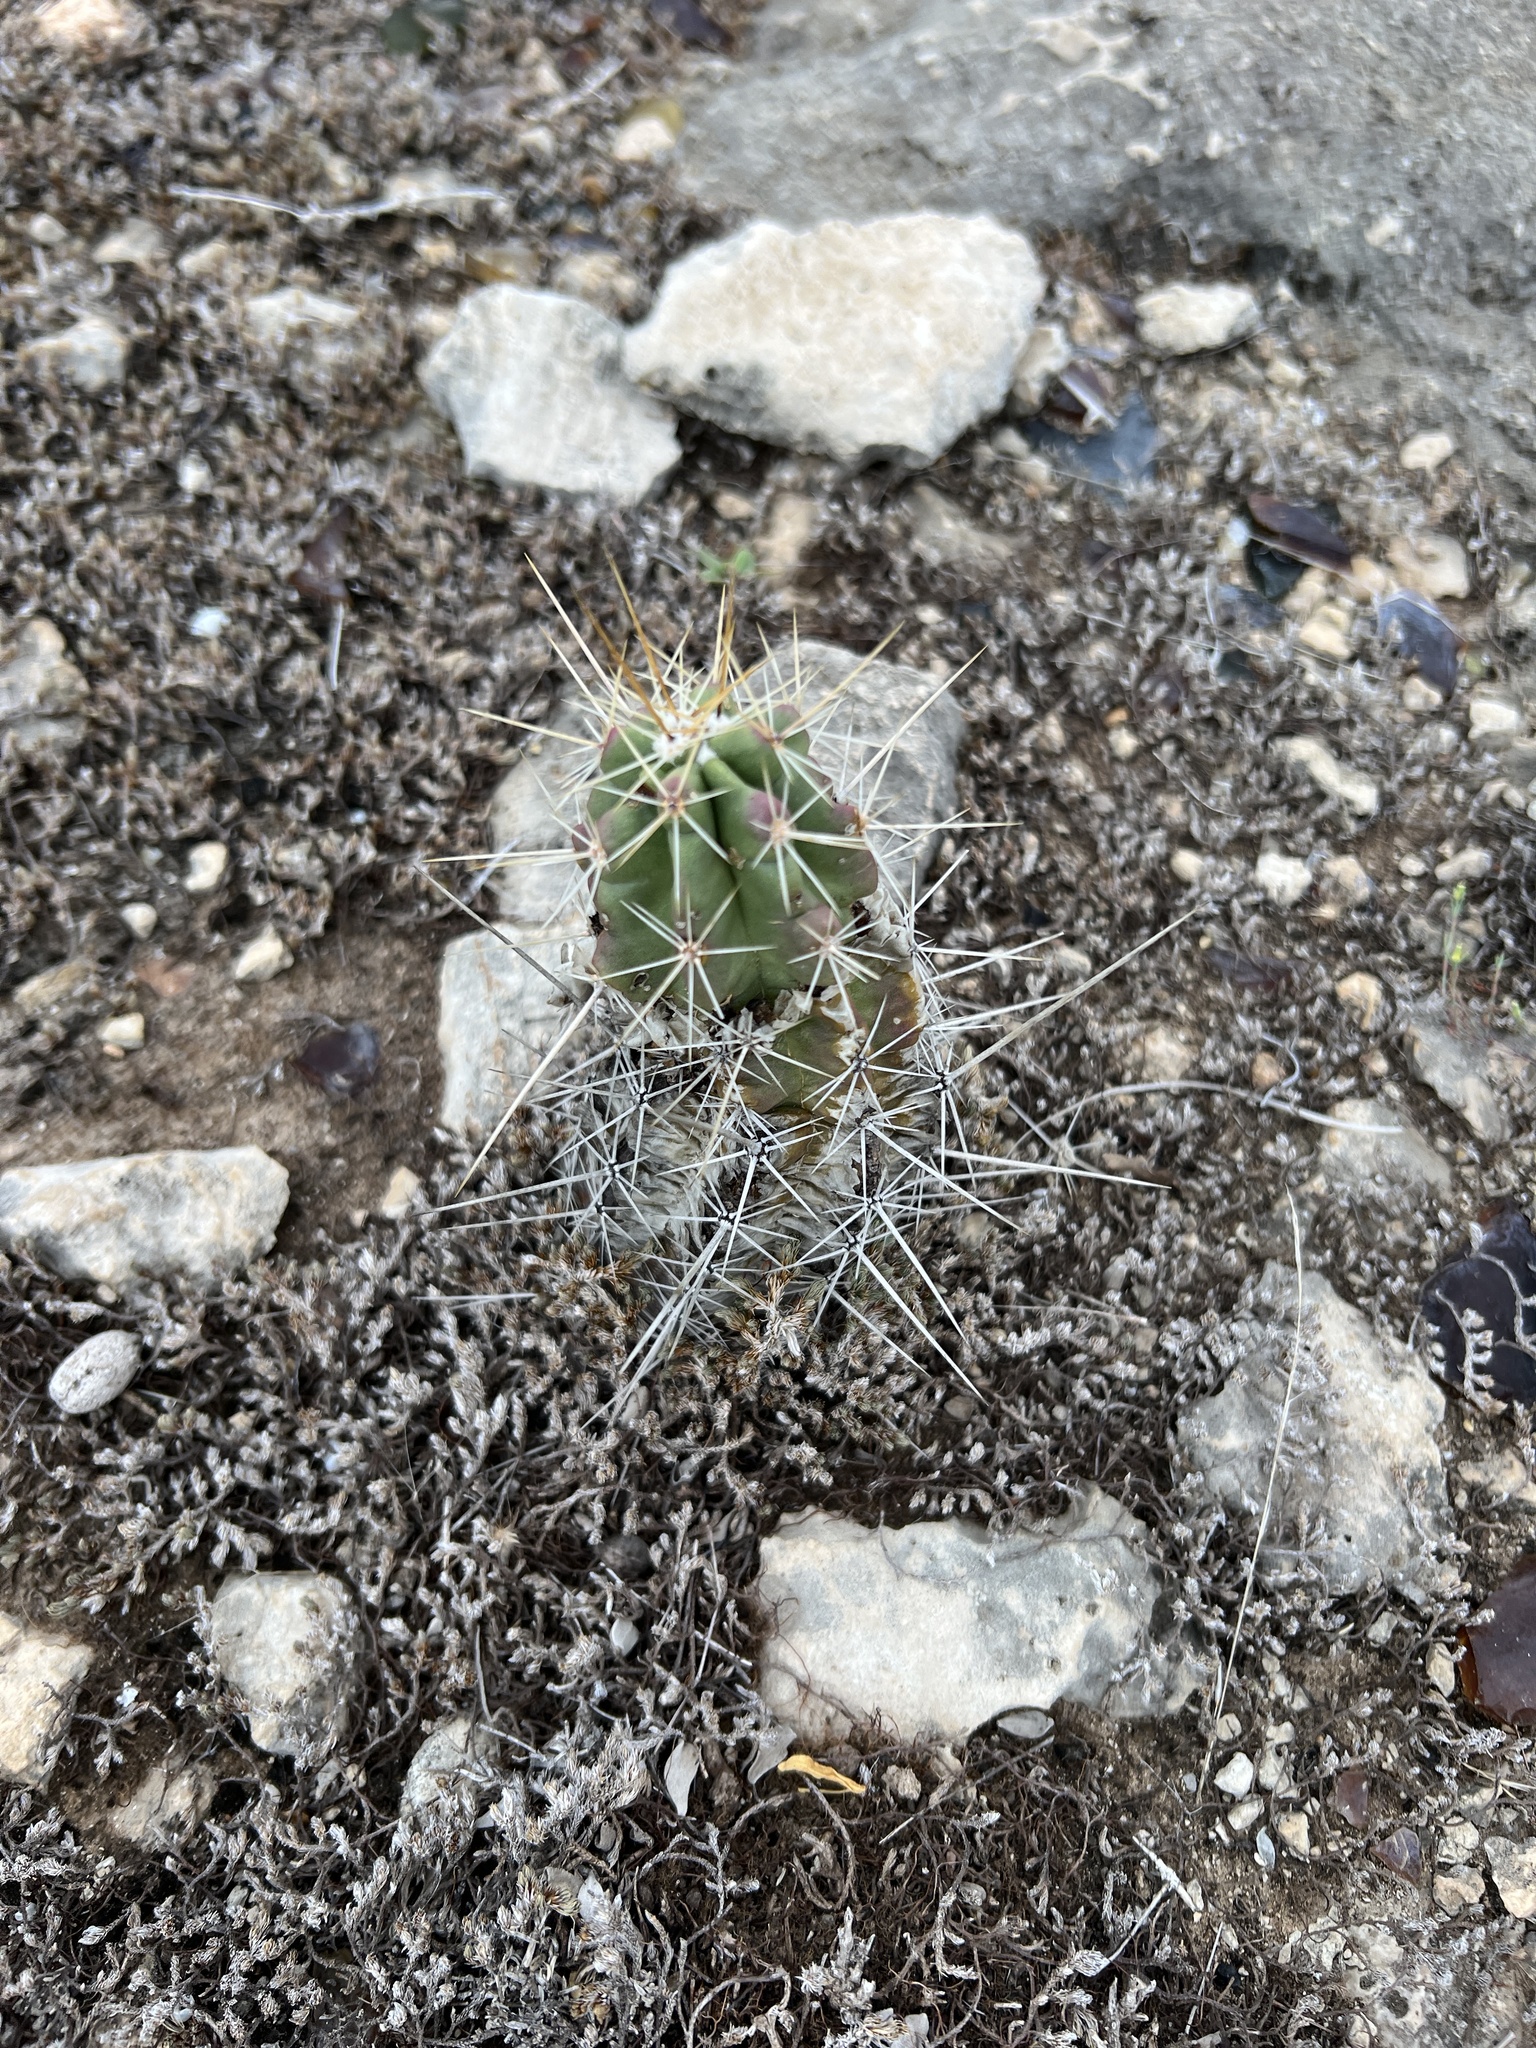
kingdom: Plantae
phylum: Tracheophyta
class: Magnoliopsida
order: Caryophyllales
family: Cactaceae
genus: Echinocereus
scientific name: Echinocereus enneacanthus
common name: Pitaya
